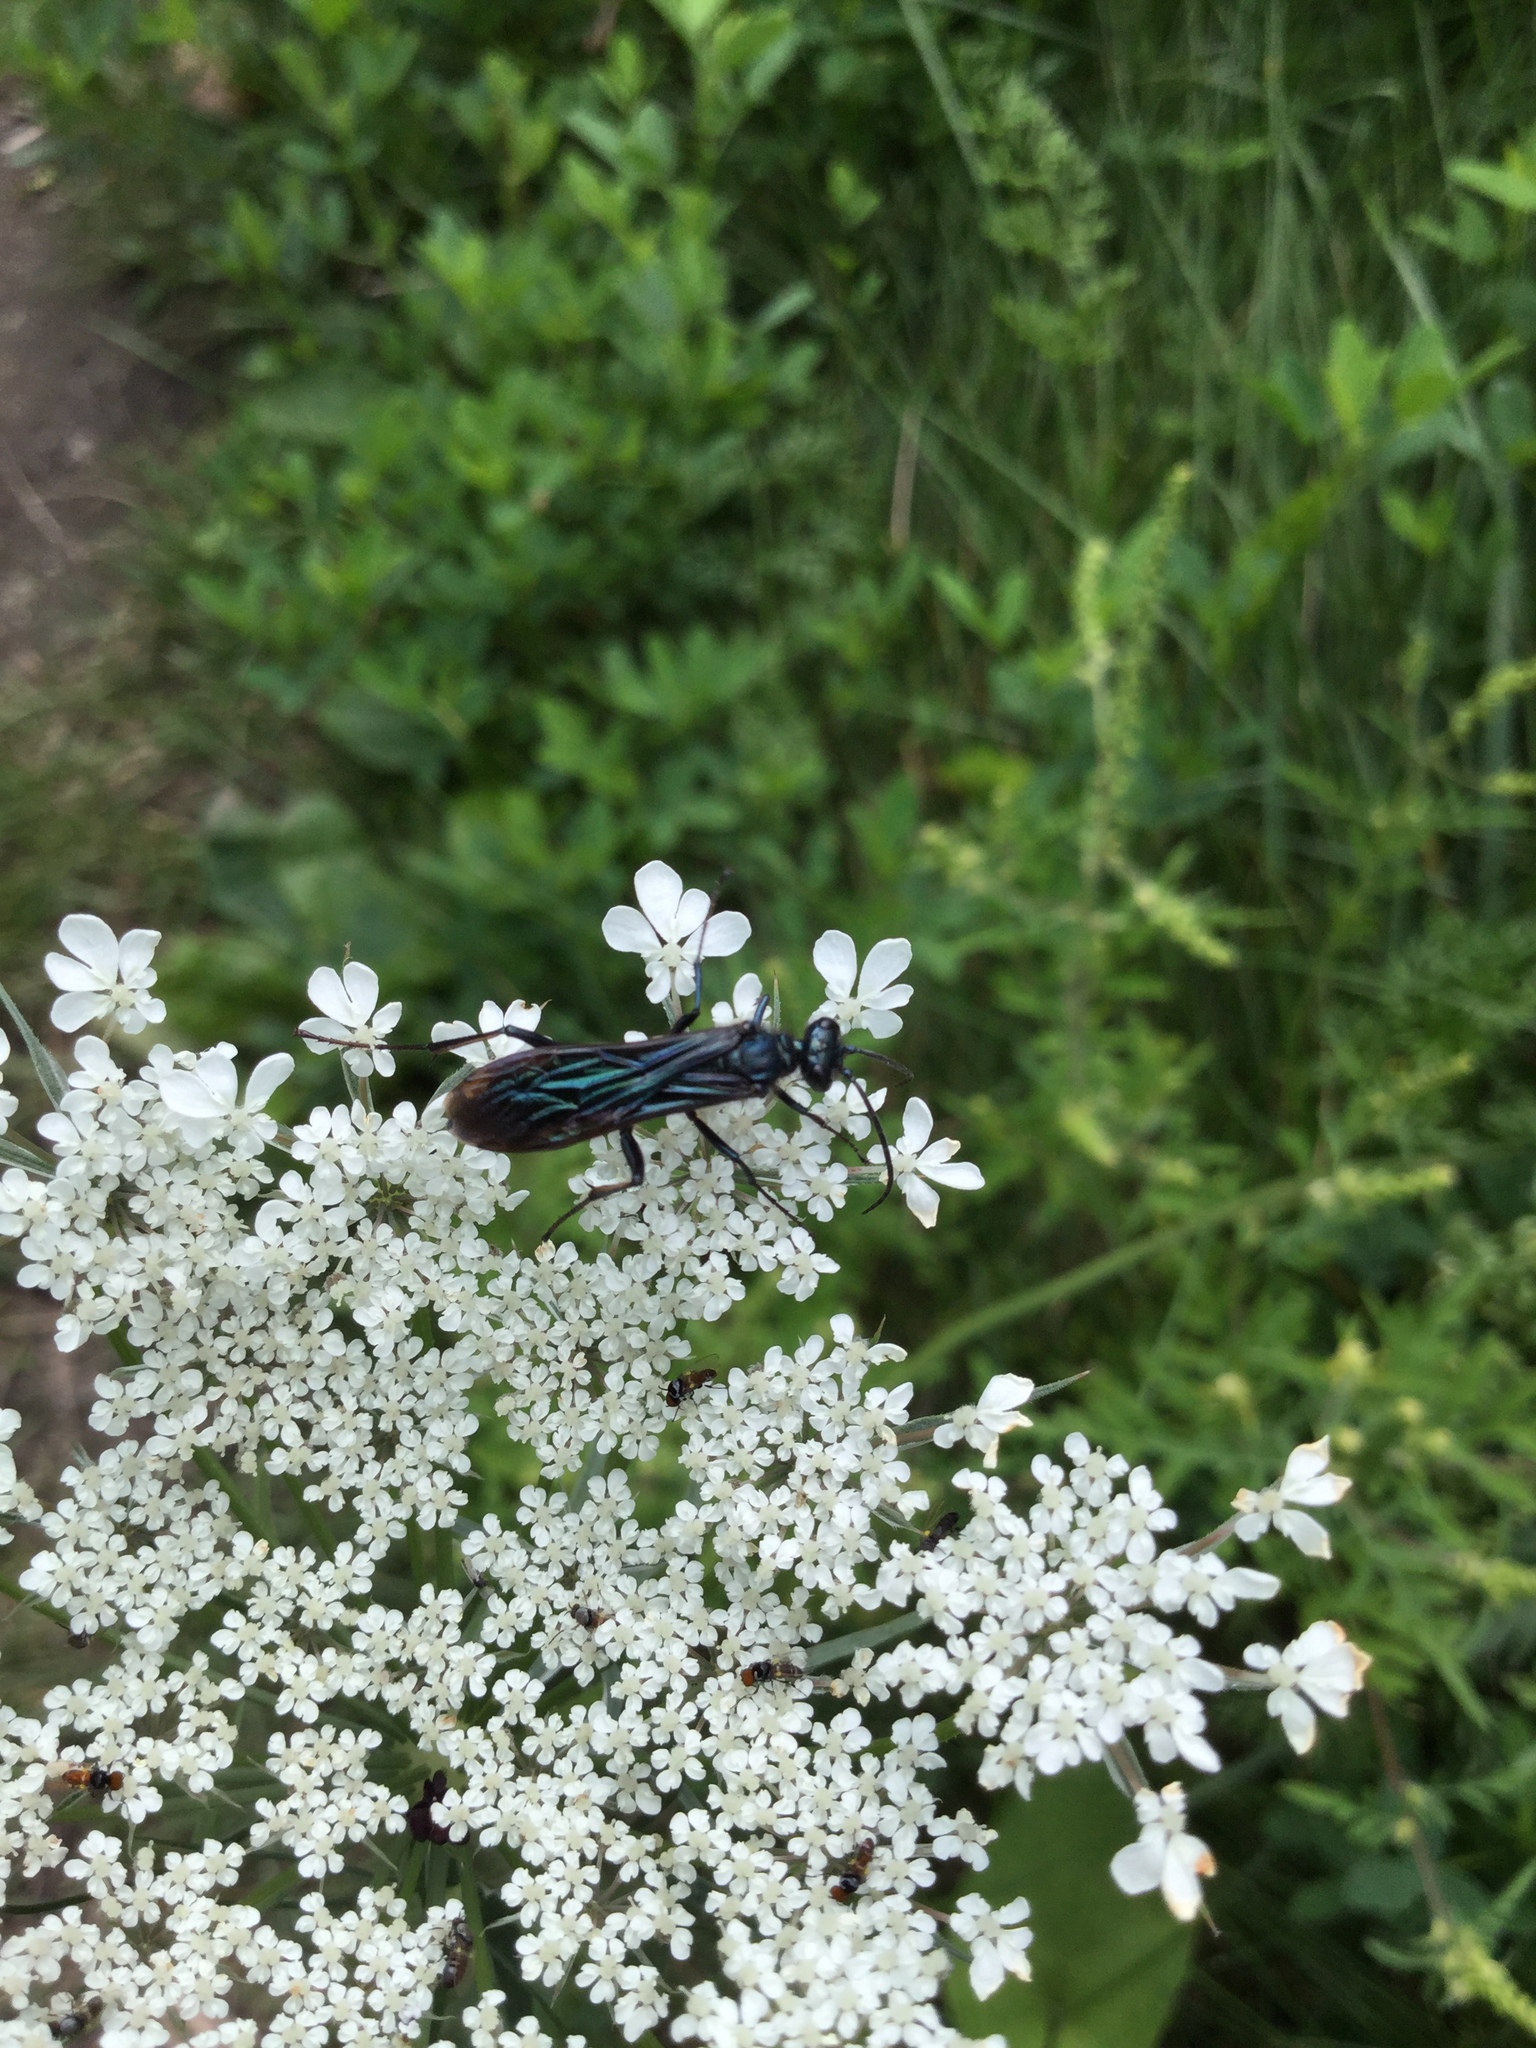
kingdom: Animalia
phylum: Arthropoda
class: Insecta
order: Hymenoptera
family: Sphecidae
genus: Chalybion
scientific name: Chalybion californicum
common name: Mud dauber
